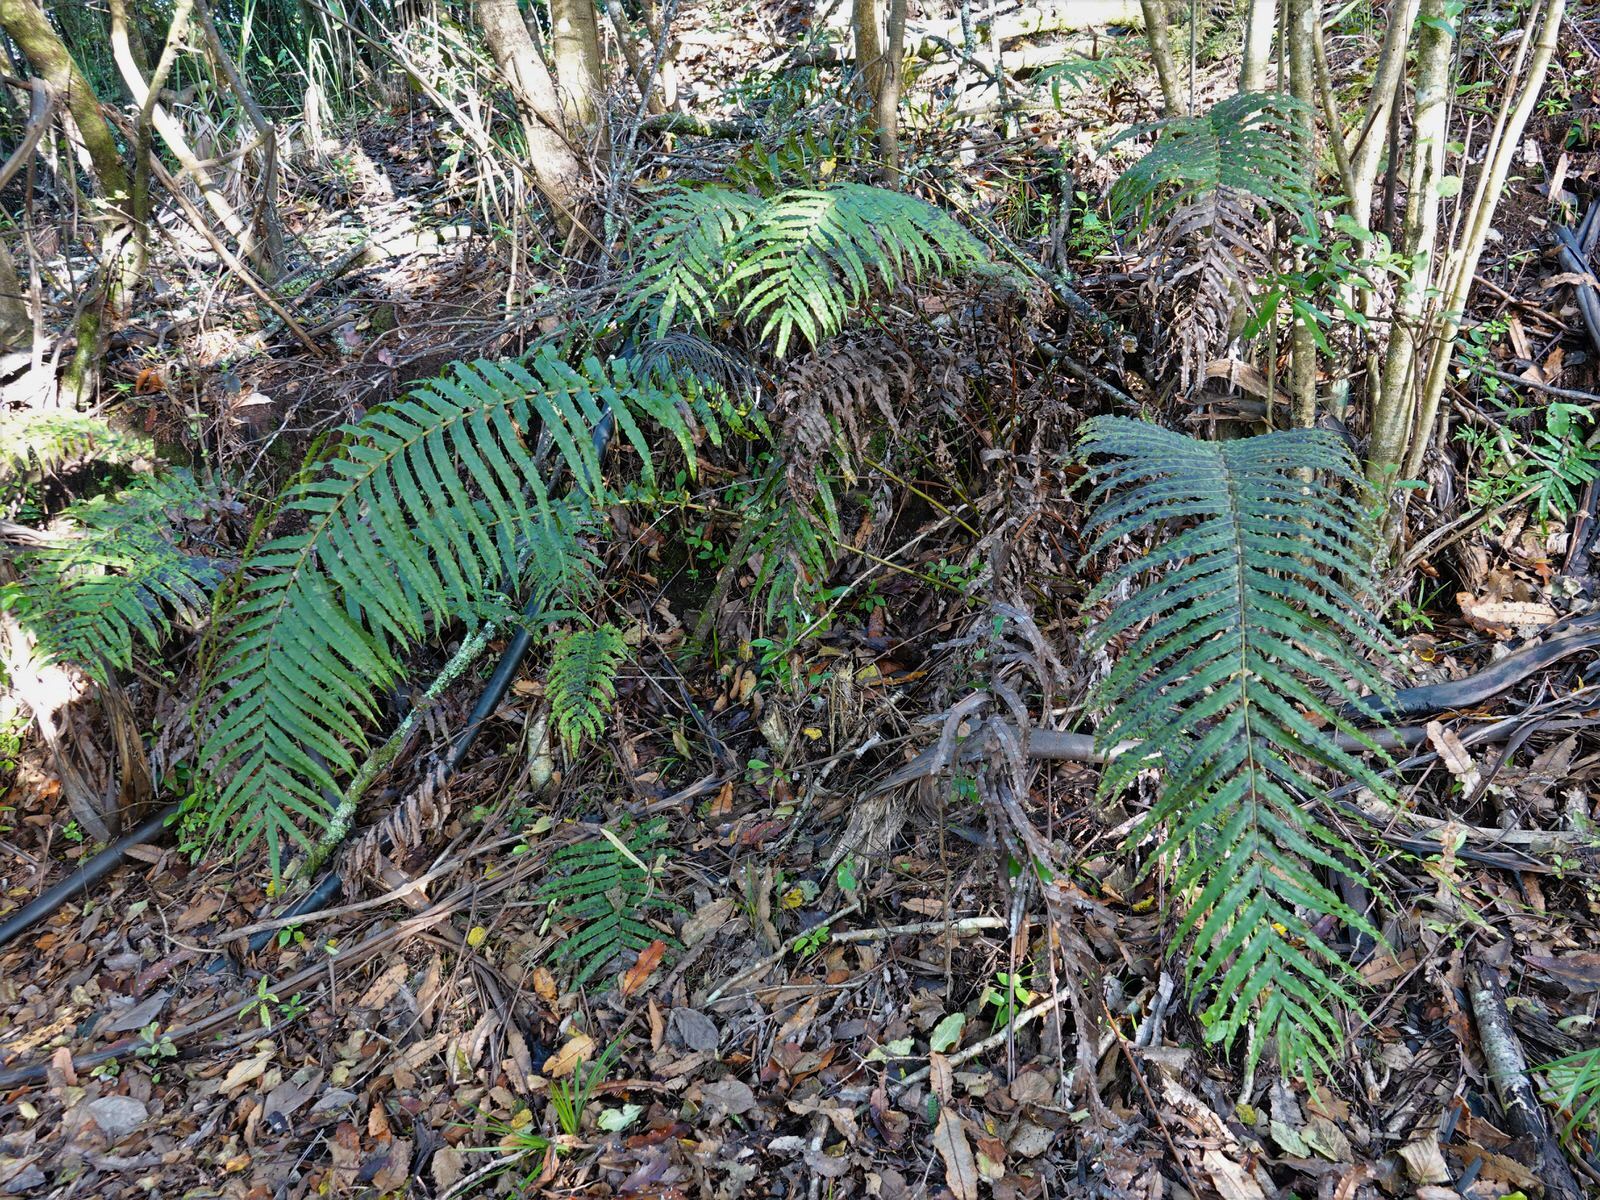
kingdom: Plantae
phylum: Tracheophyta
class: Polypodiopsida
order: Polypodiales
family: Blechnaceae
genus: Parablechnum
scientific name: Parablechnum novae-zelandiae
